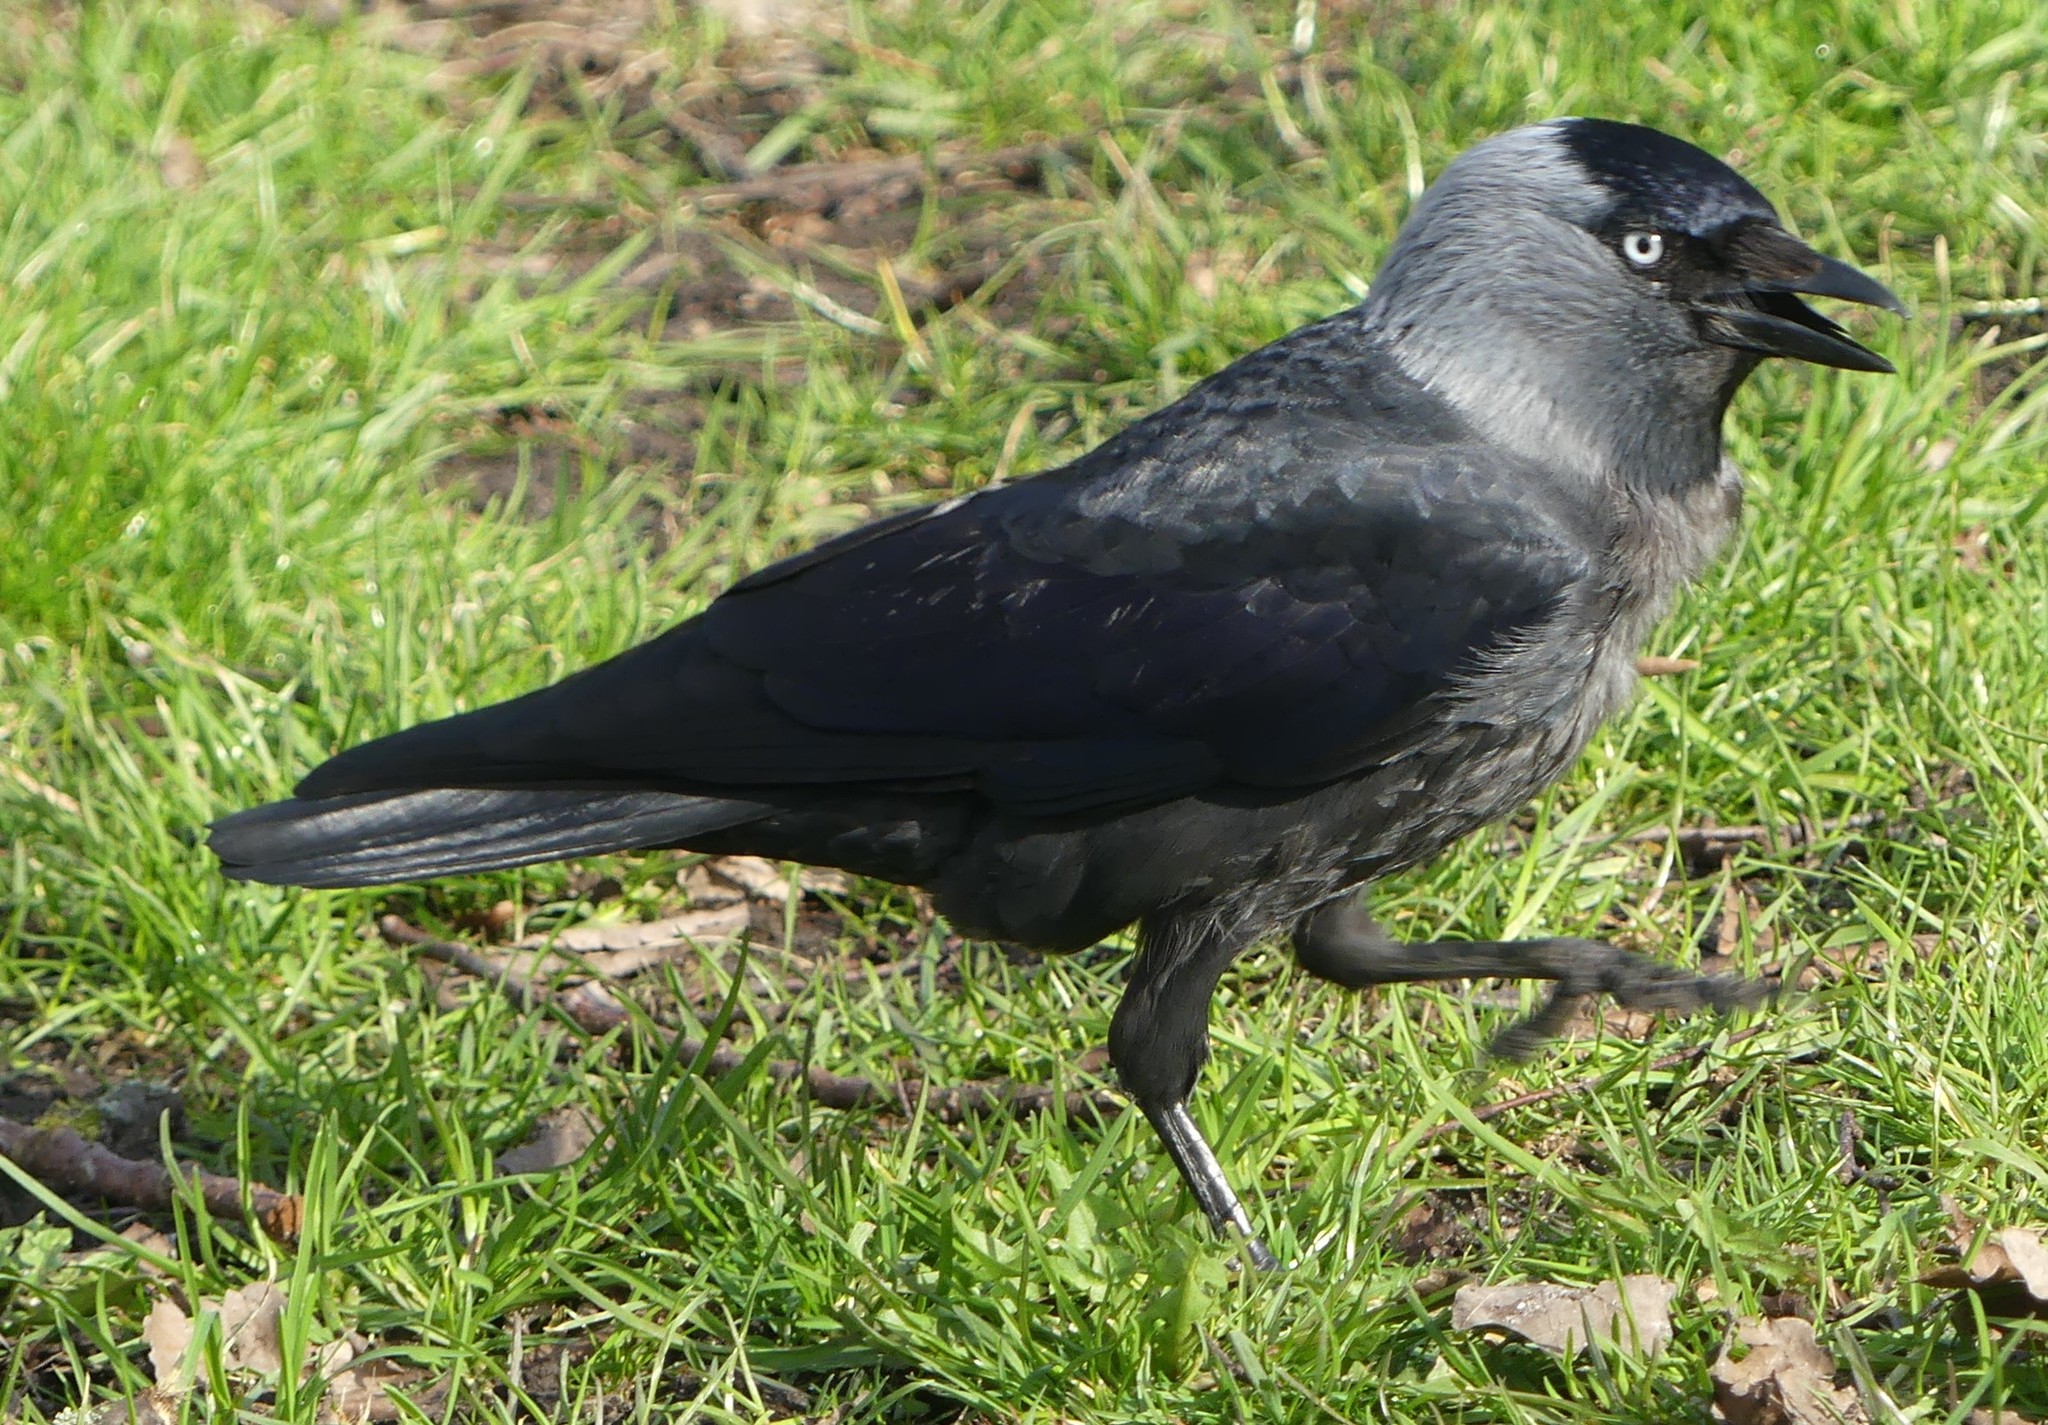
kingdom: Animalia
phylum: Chordata
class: Aves
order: Passeriformes
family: Corvidae
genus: Coloeus
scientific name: Coloeus monedula
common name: Western jackdaw
